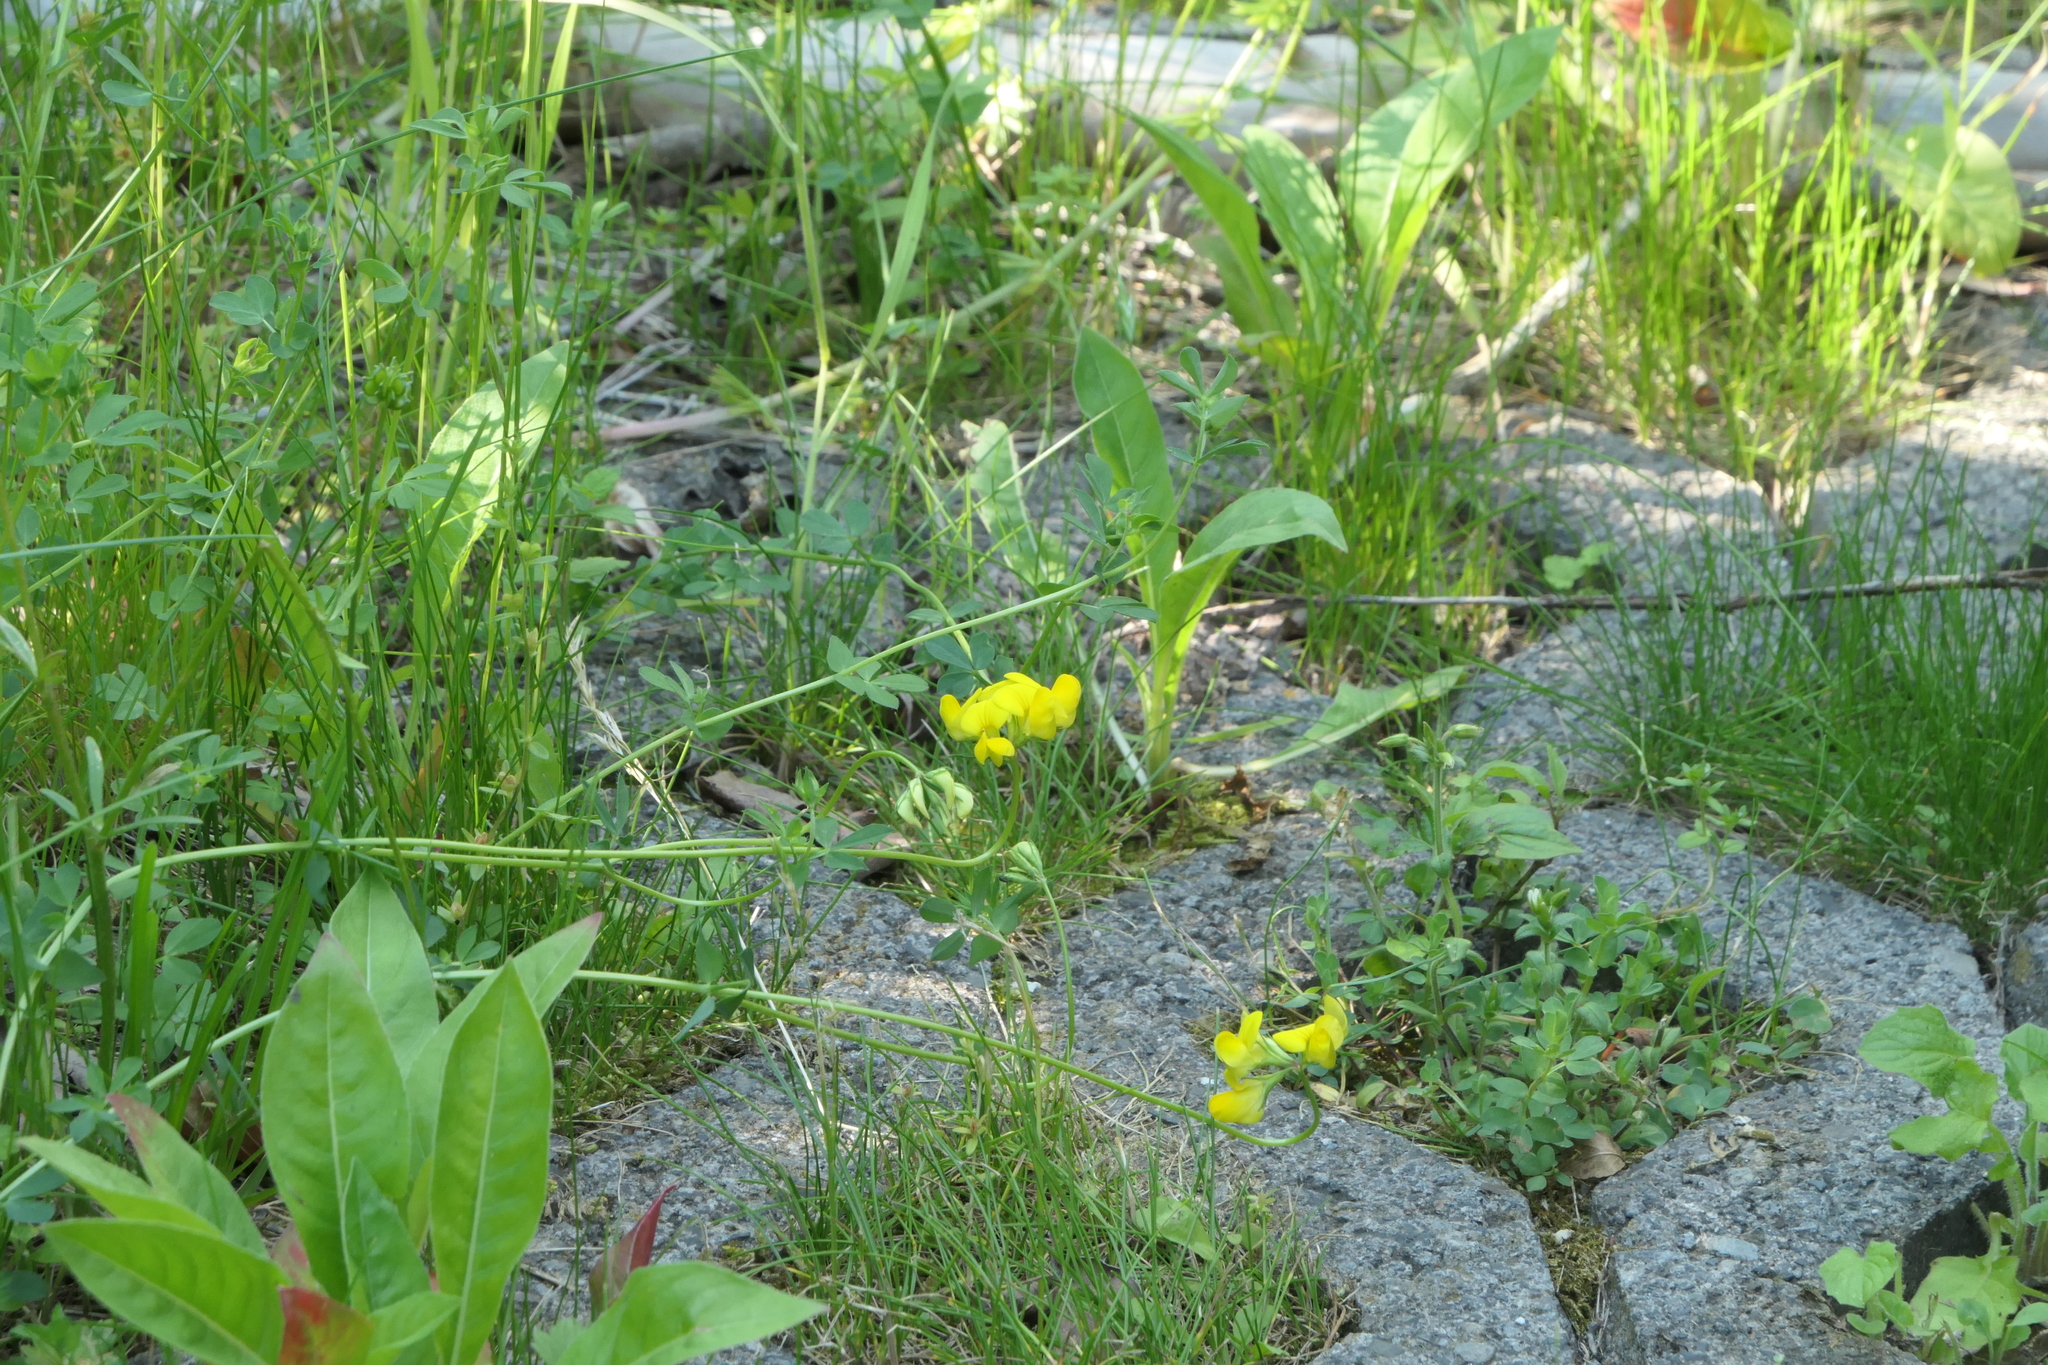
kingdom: Plantae
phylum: Tracheophyta
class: Magnoliopsida
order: Fabales
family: Fabaceae
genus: Lotus
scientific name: Lotus corniculatus
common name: Common bird's-foot-trefoil
